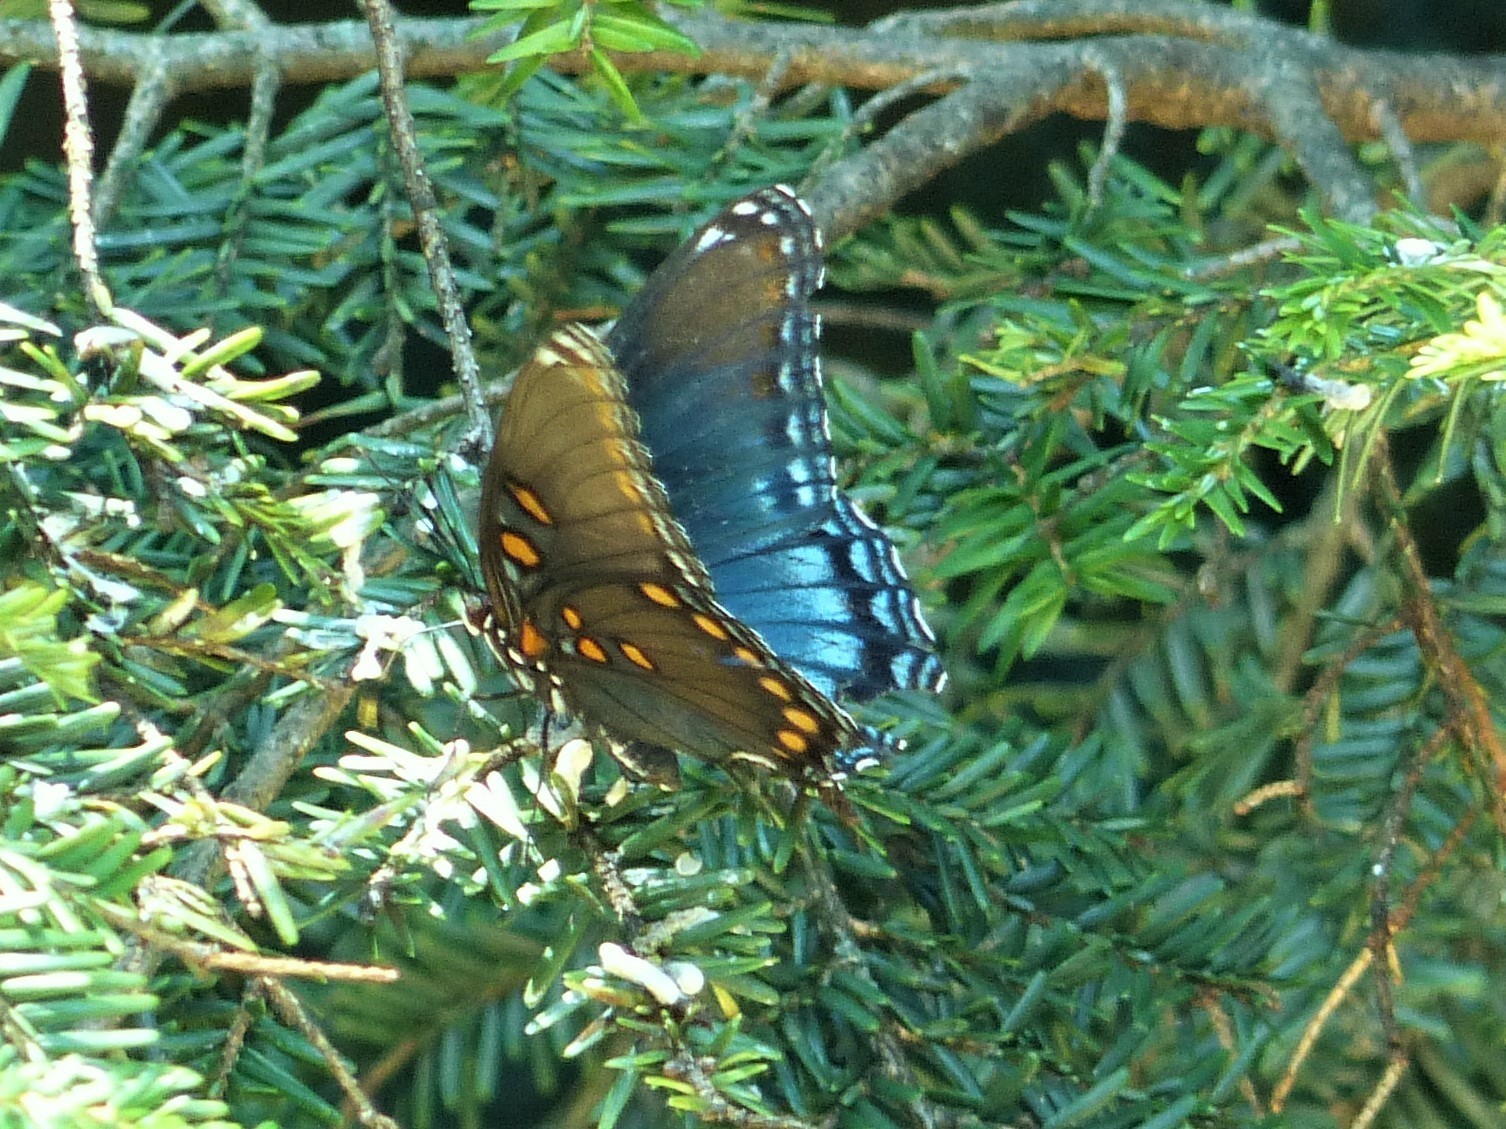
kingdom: Animalia
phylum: Arthropoda
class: Insecta
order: Lepidoptera
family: Nymphalidae
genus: Limenitis
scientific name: Limenitis astyanax
